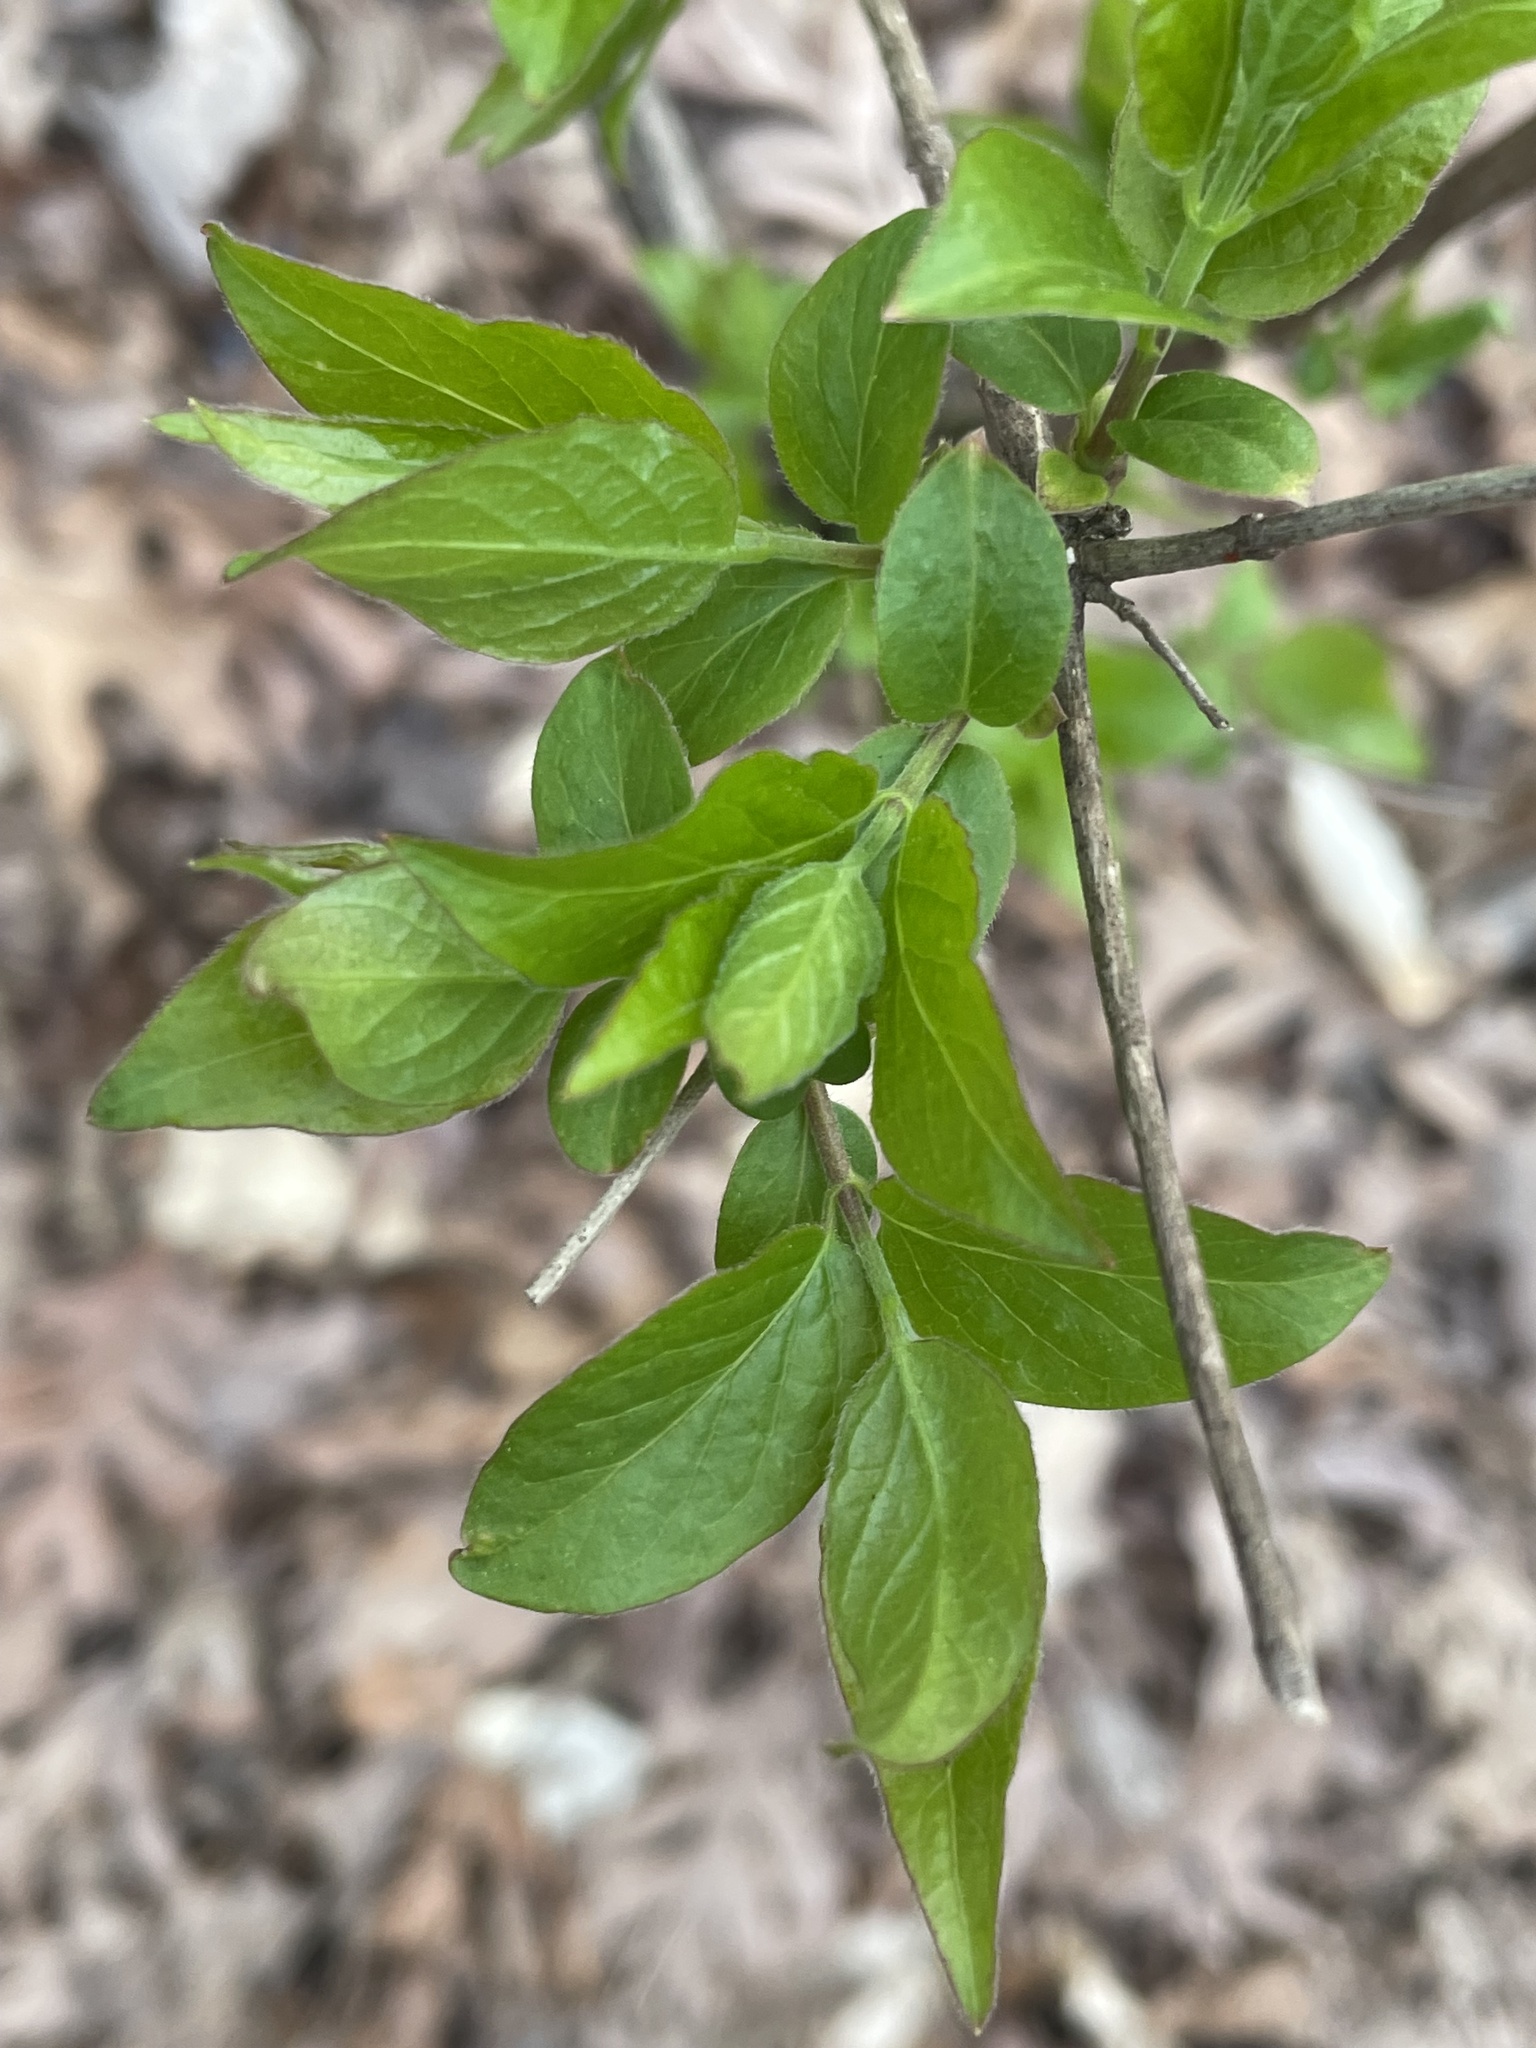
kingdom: Plantae
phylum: Tracheophyta
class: Magnoliopsida
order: Dipsacales
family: Caprifoliaceae
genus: Lonicera
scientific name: Lonicera maackii
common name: Amur honeysuckle
